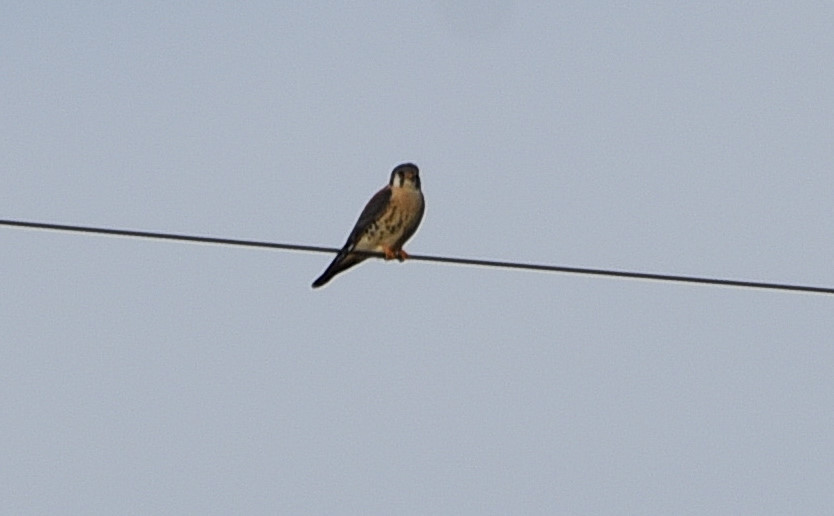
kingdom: Animalia
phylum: Chordata
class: Aves
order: Falconiformes
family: Falconidae
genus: Falco
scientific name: Falco sparverius
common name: American kestrel
